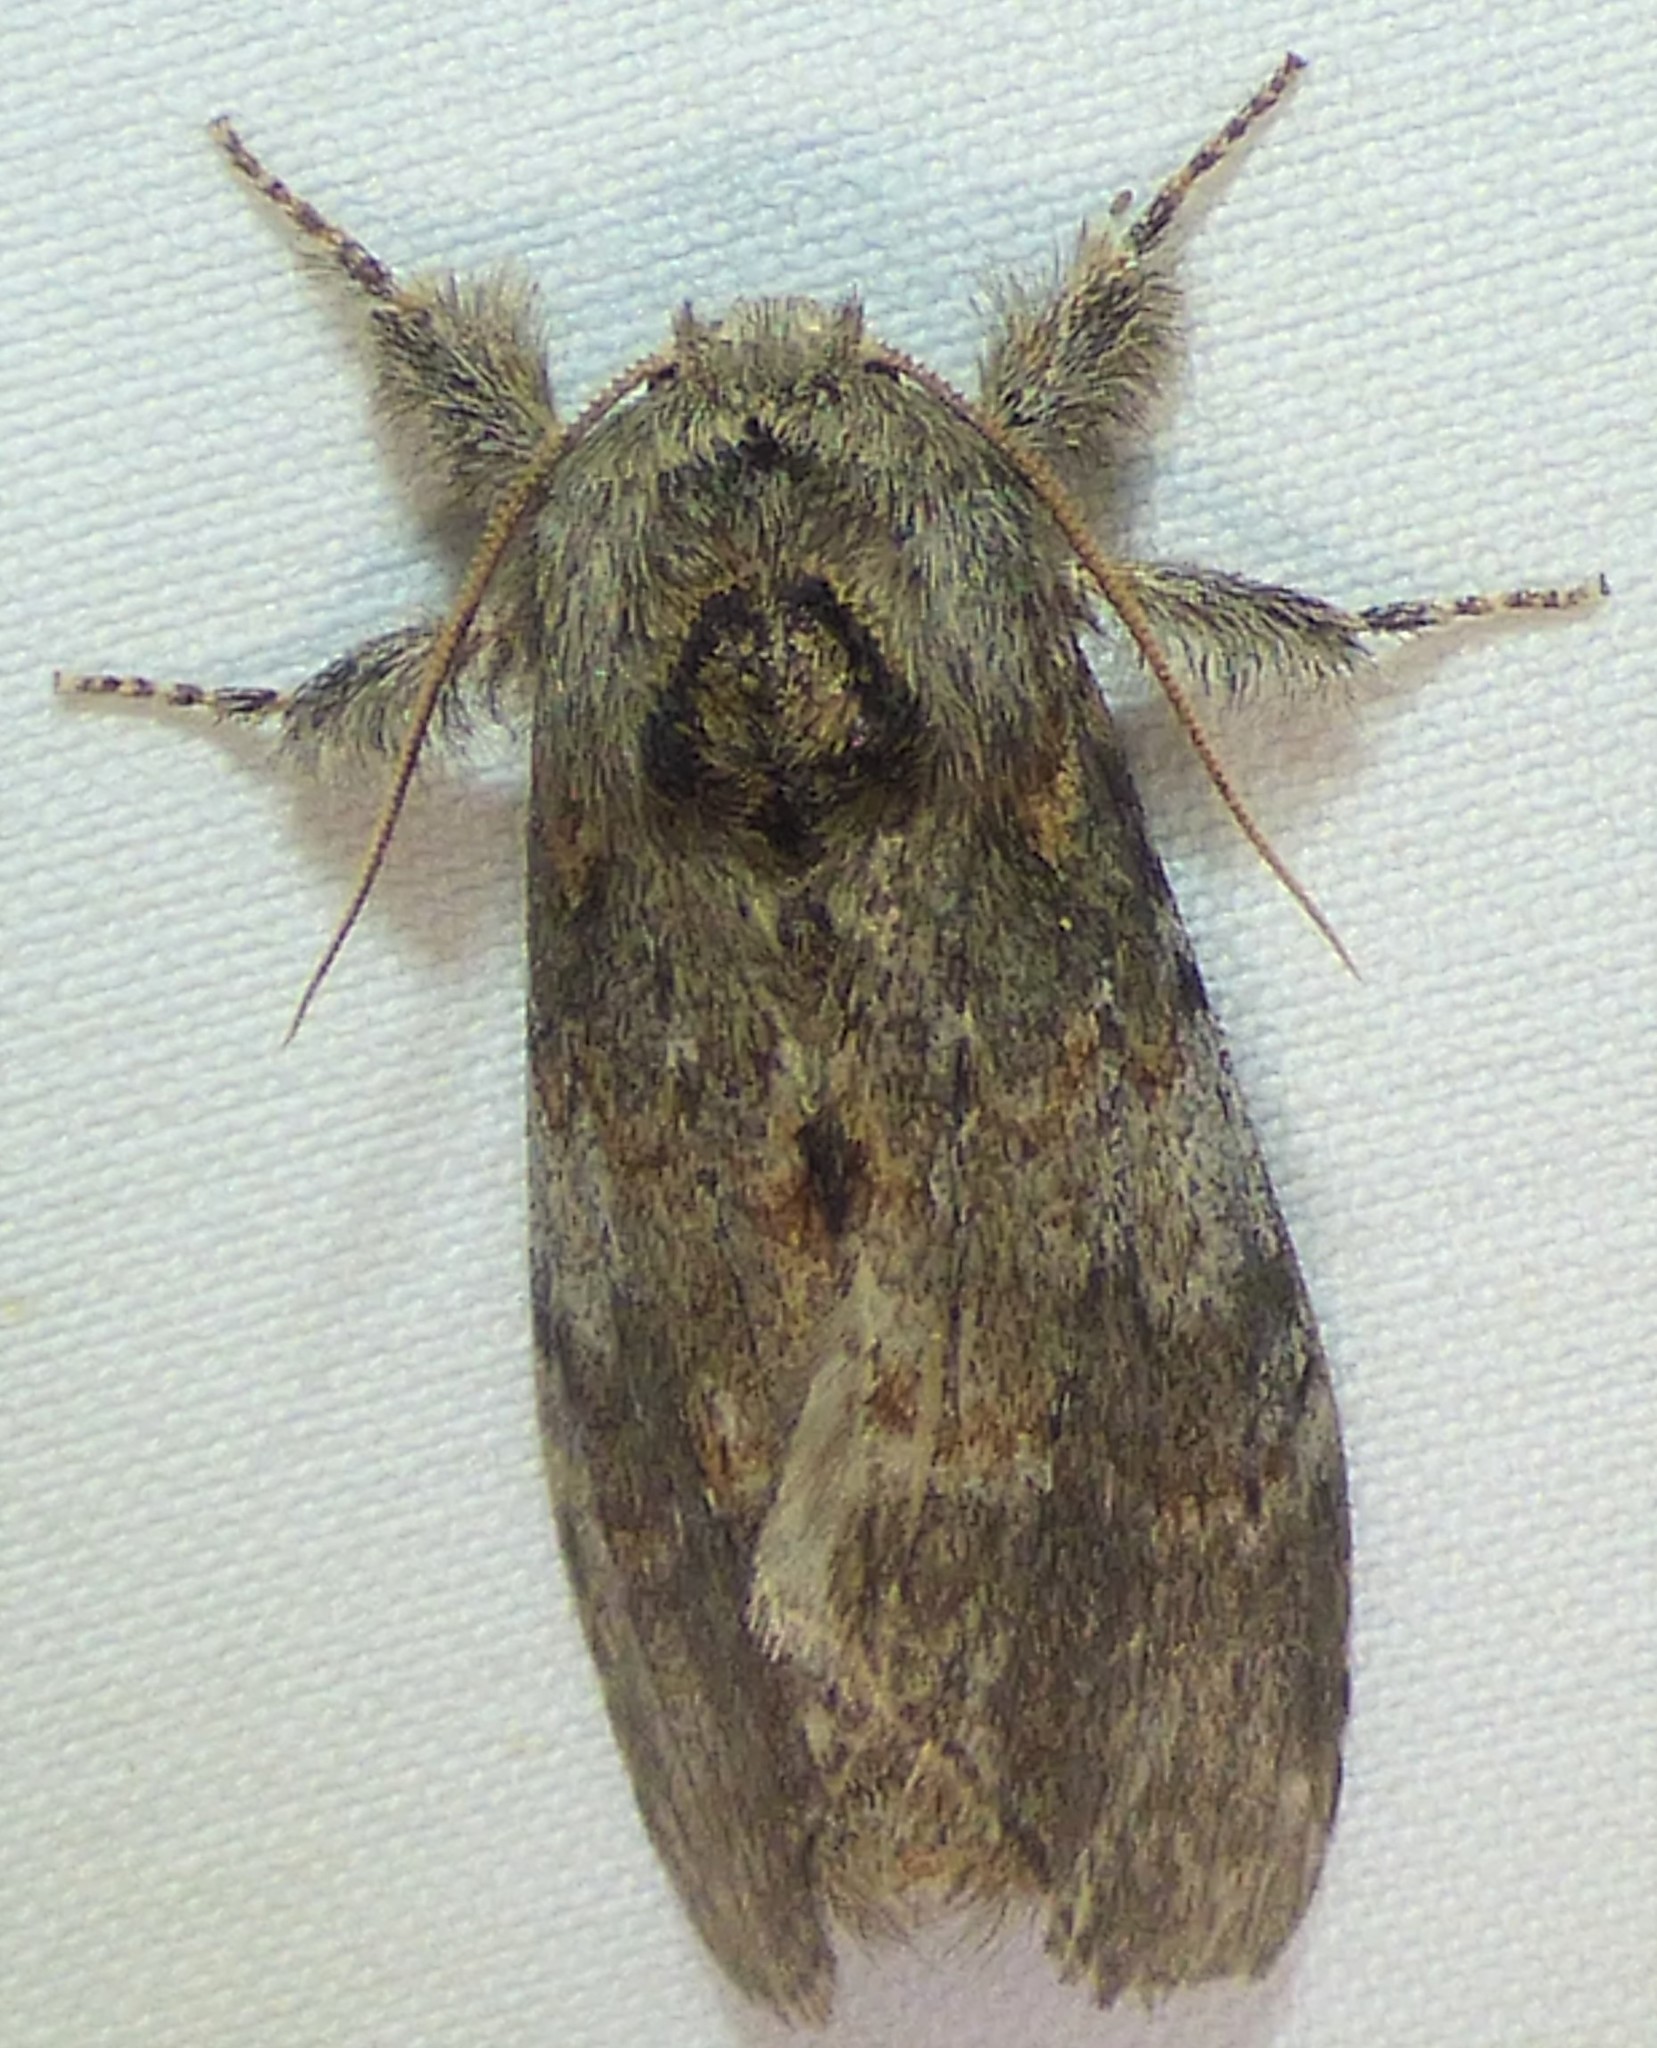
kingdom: Animalia
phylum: Arthropoda
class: Insecta
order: Lepidoptera
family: Notodontidae
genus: Peridea
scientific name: Peridea angulosa
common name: Angulose prominent
